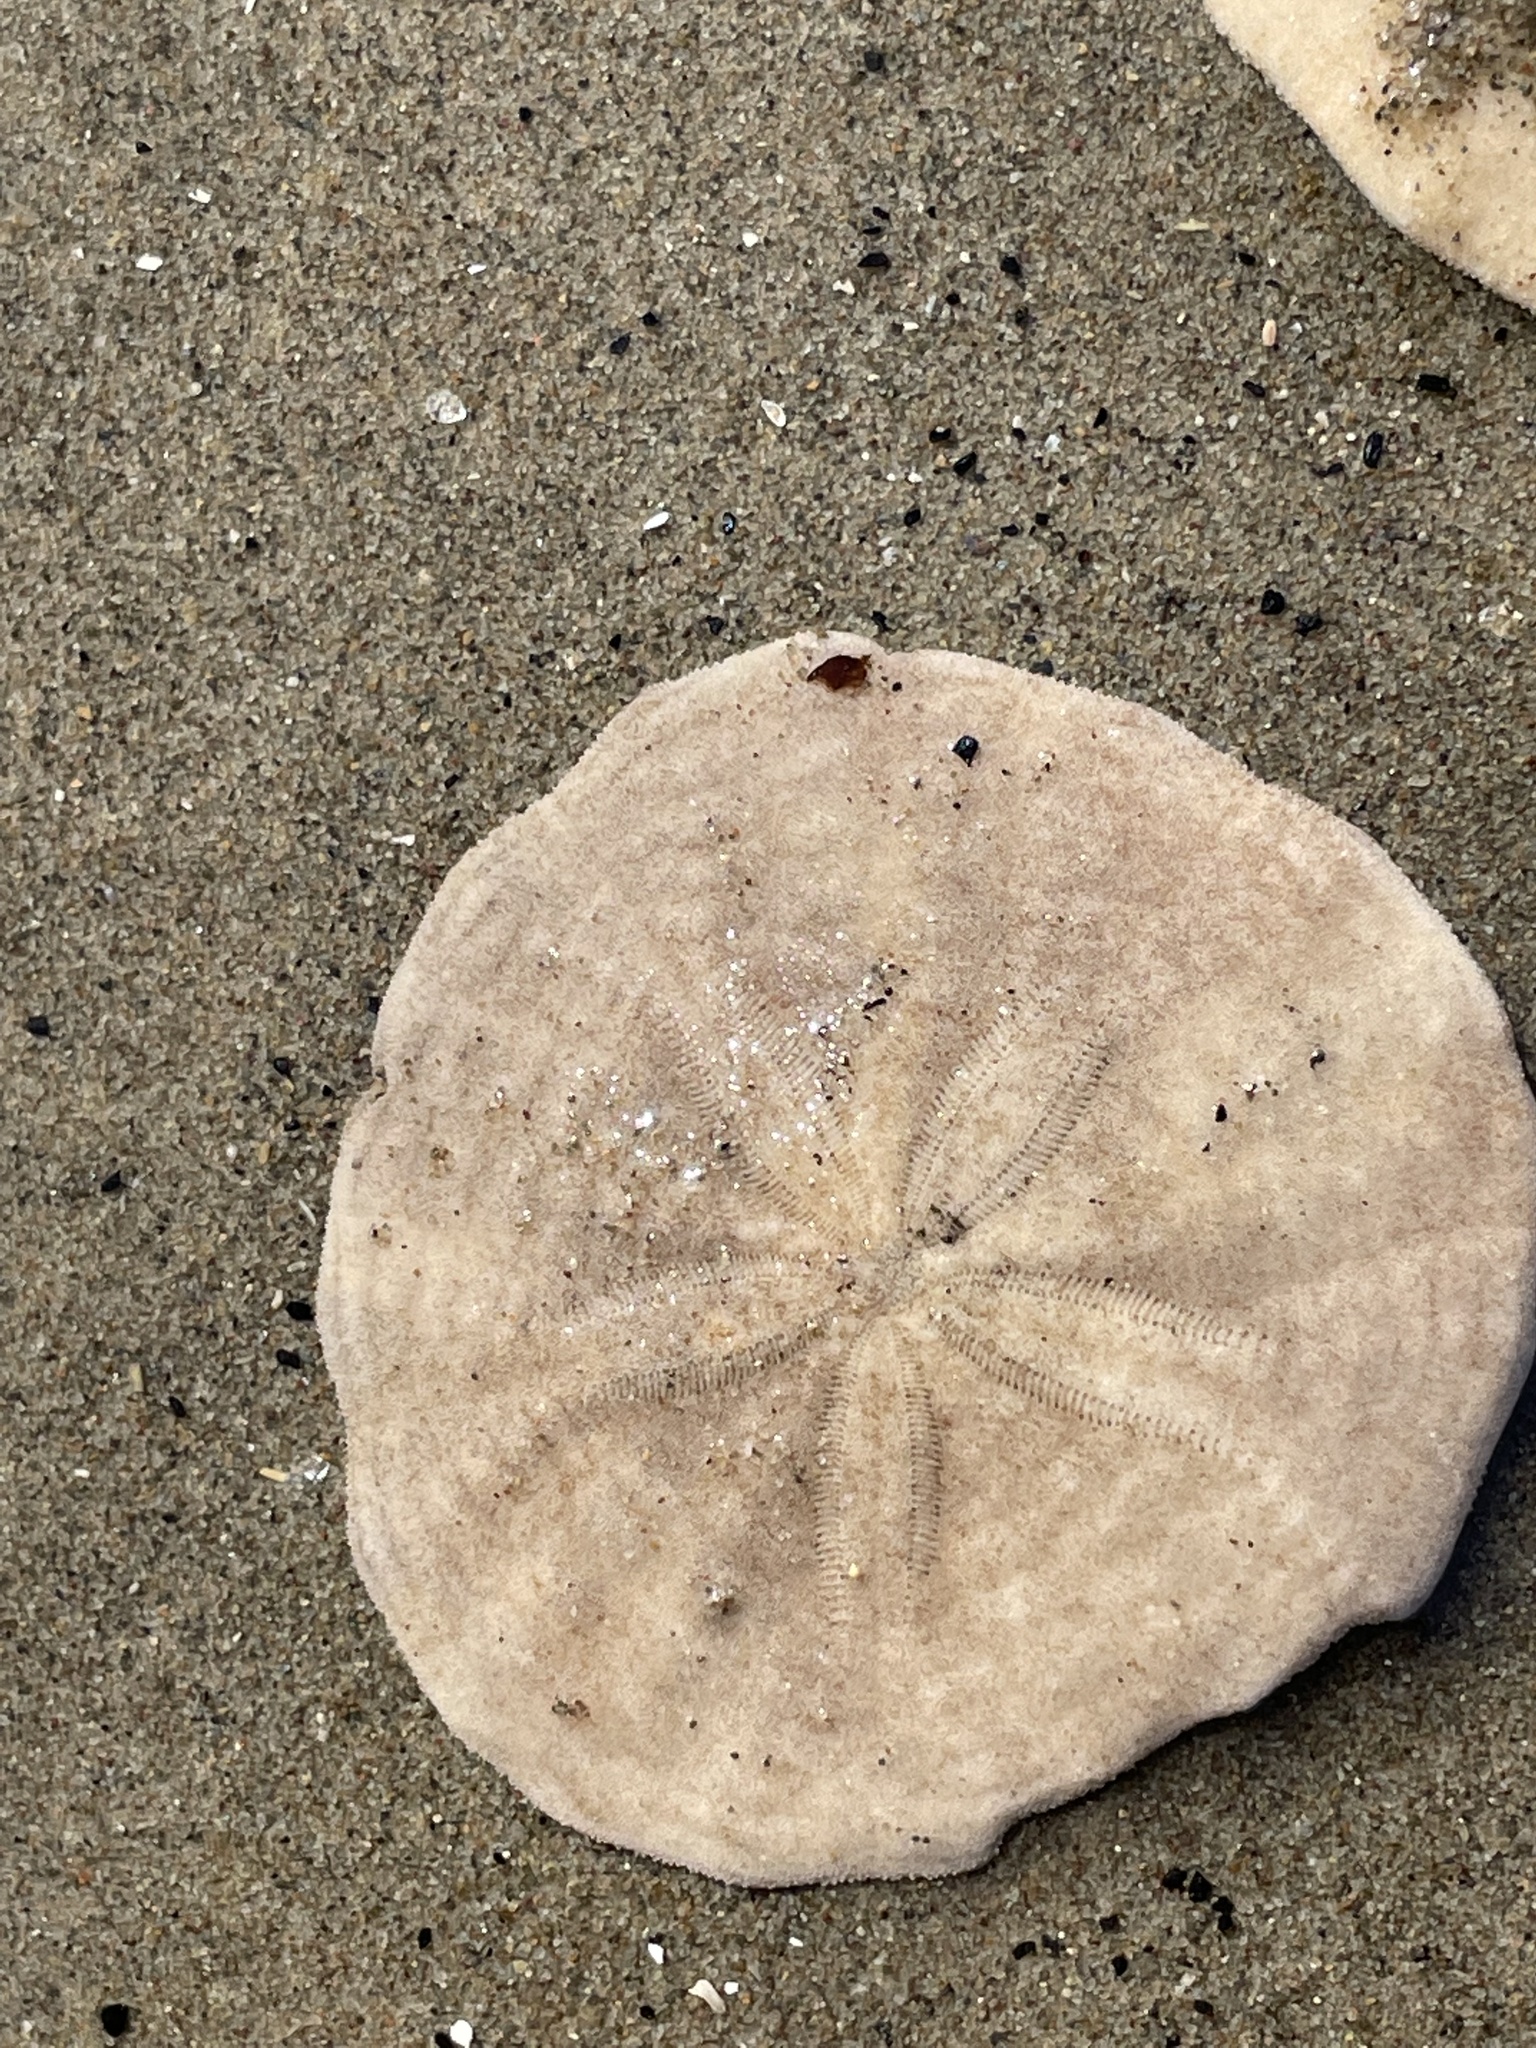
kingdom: Animalia
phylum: Echinodermata
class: Echinoidea
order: Echinolampadacea
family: Echinarachniidae
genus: Echinarachnius
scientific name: Echinarachnius parma
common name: Common sand dollar
